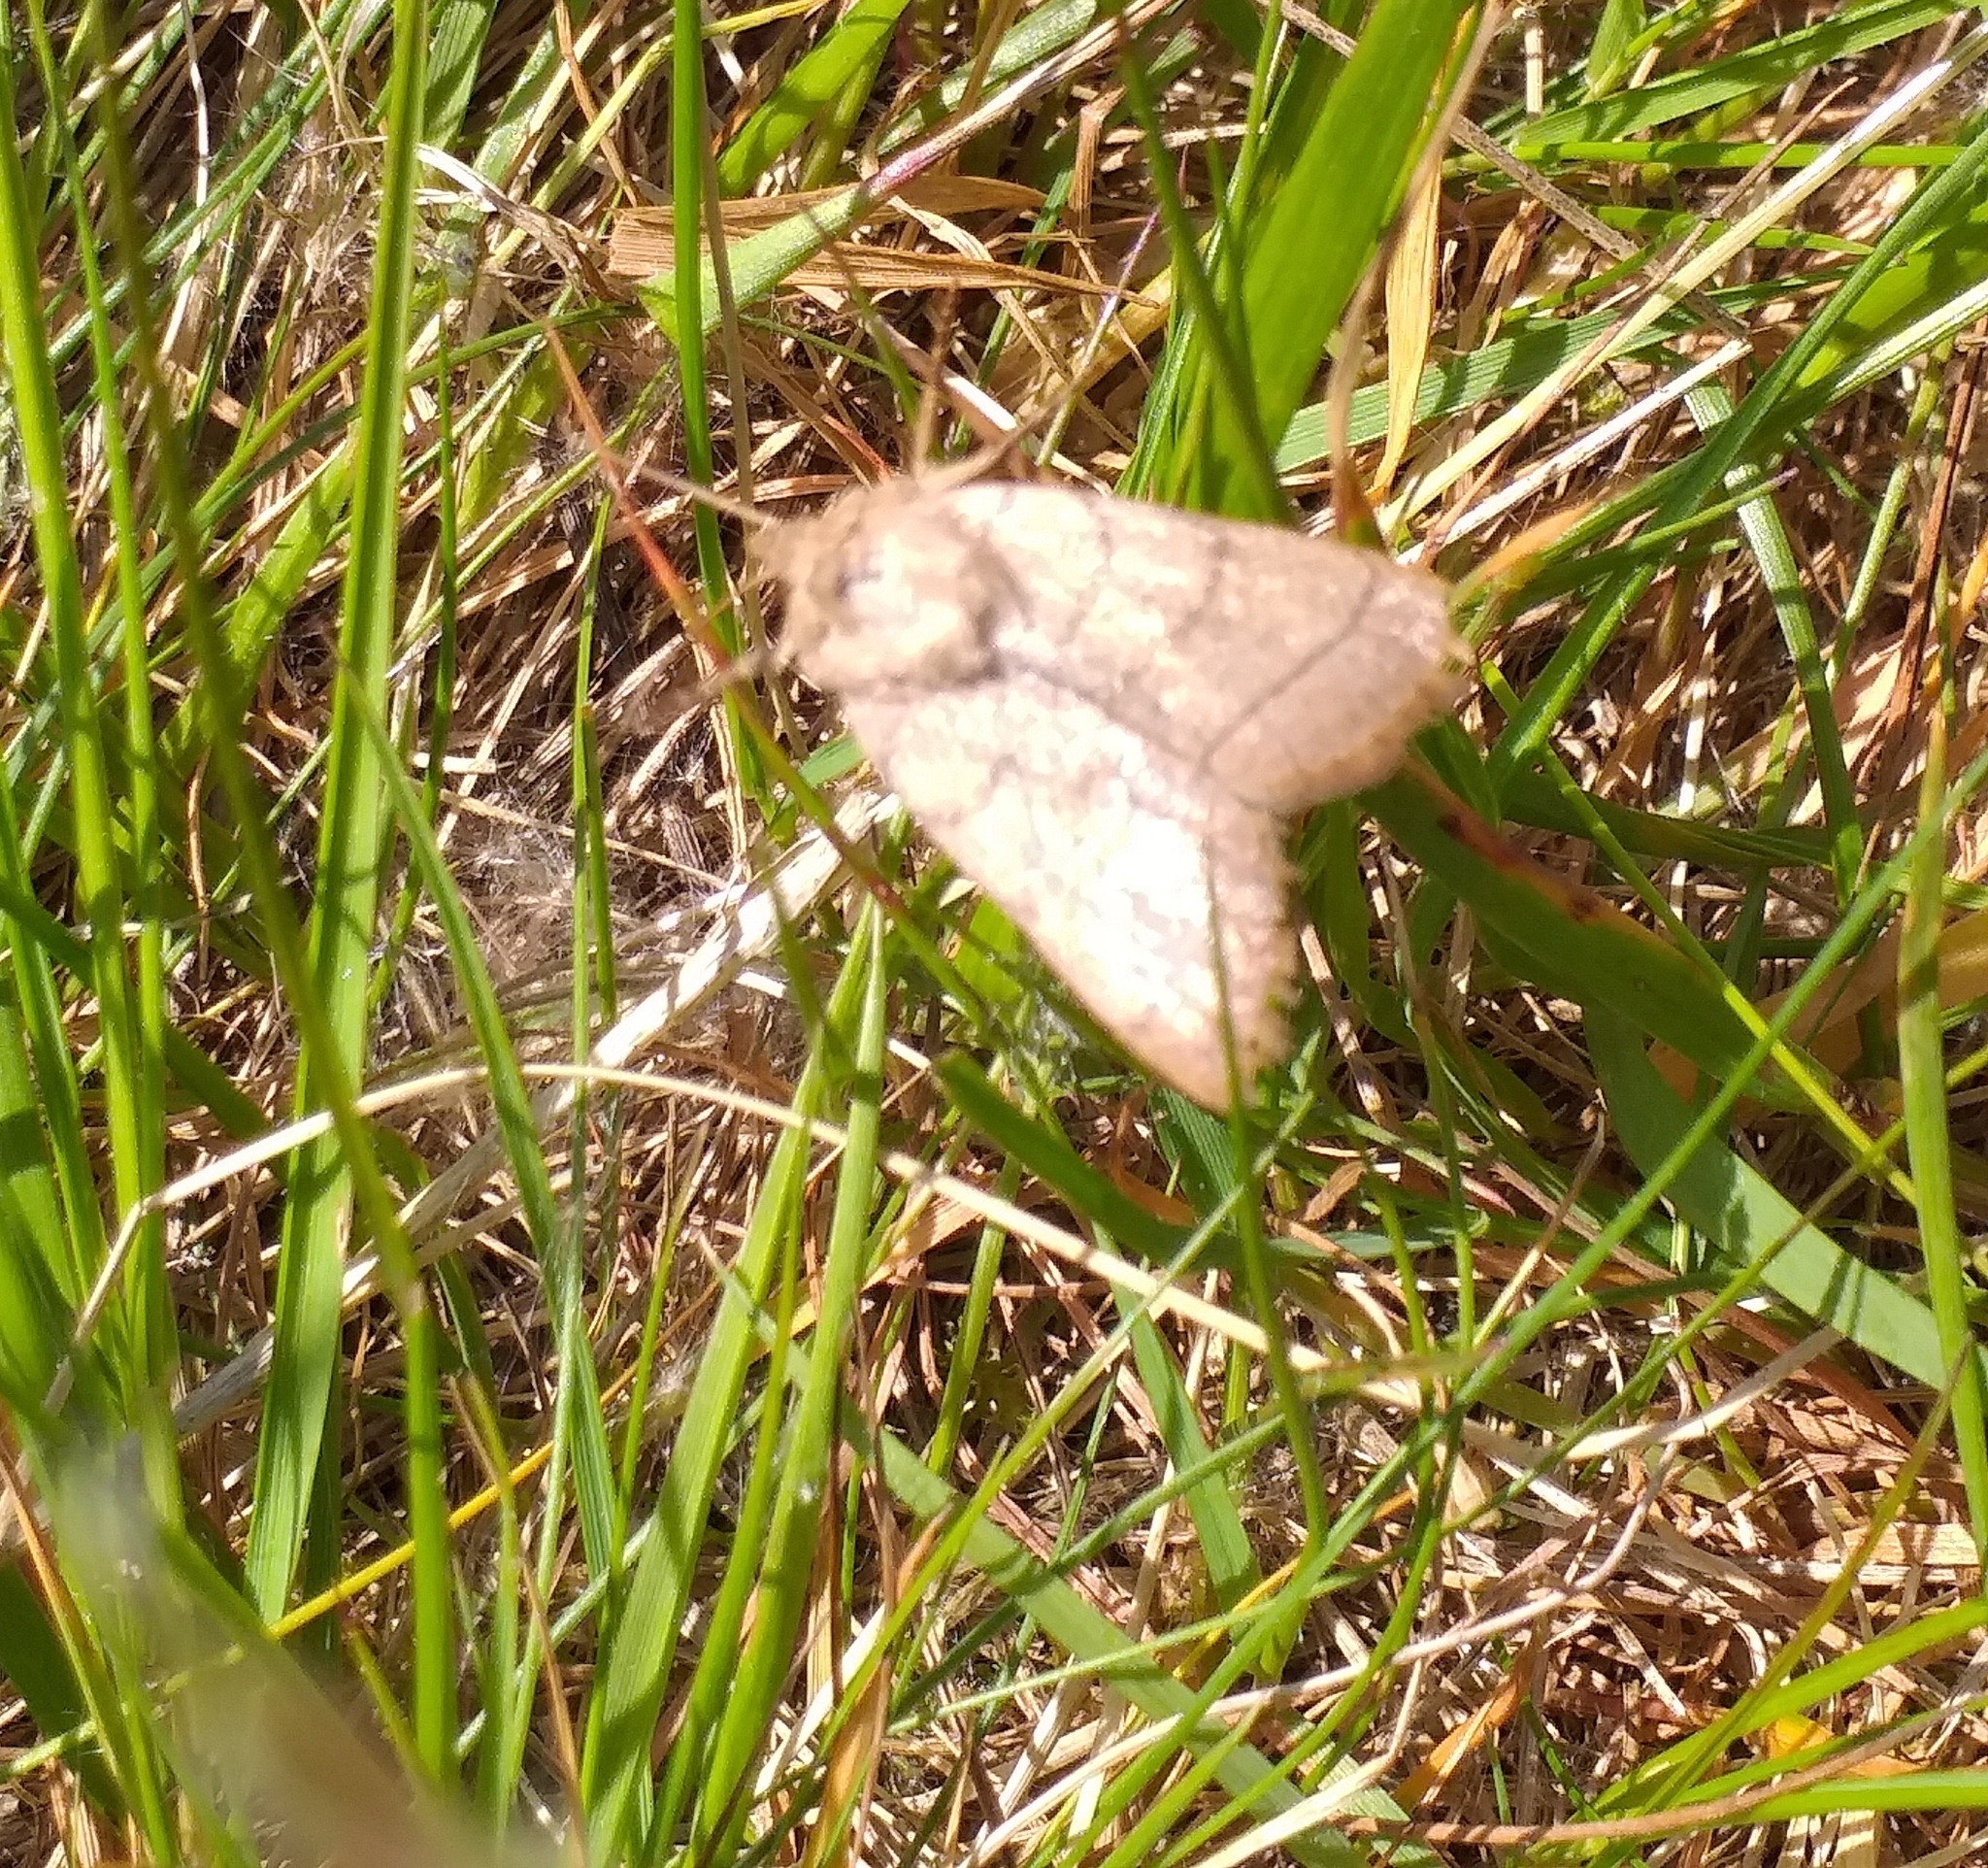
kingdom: Animalia
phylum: Arthropoda
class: Insecta
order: Lepidoptera
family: Noctuidae
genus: Charanyca
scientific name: Charanyca trigrammica
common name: Treble lines
